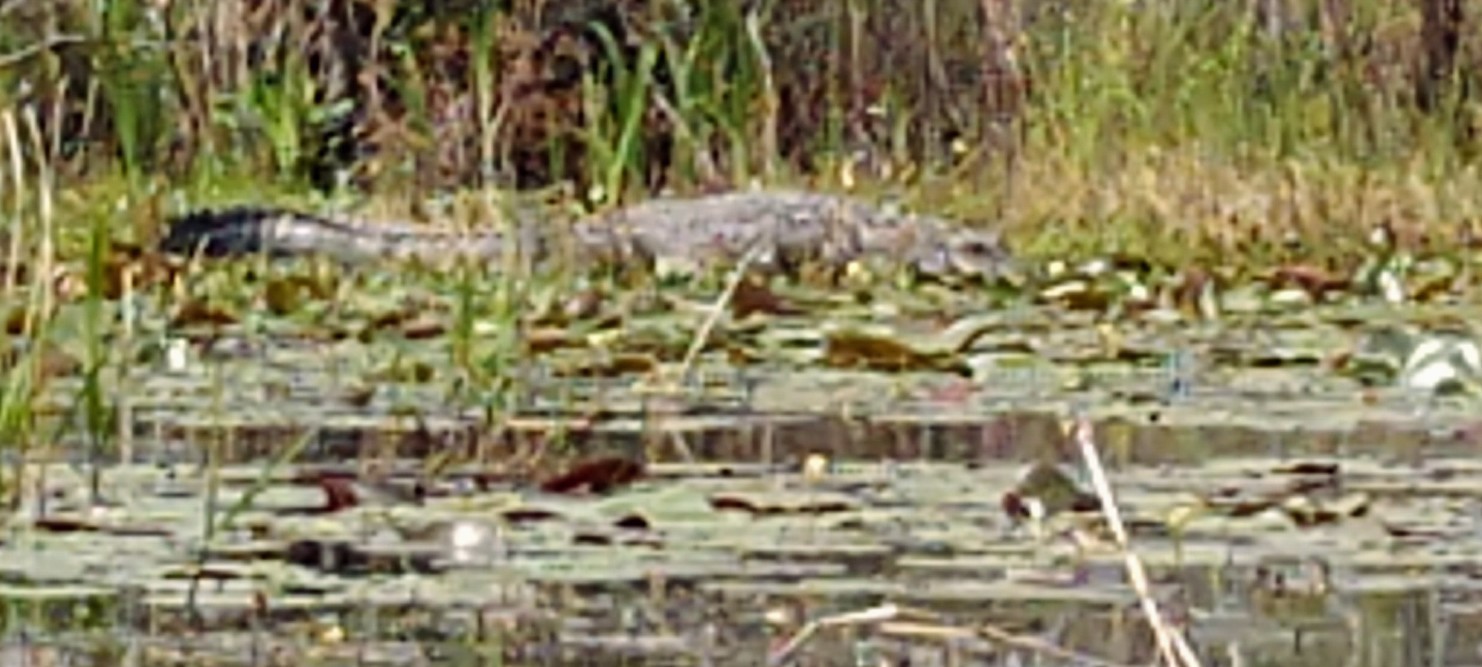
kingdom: Animalia
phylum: Chordata
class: Crocodylia
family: Alligatoridae
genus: Alligator
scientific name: Alligator mississippiensis
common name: American alligator
